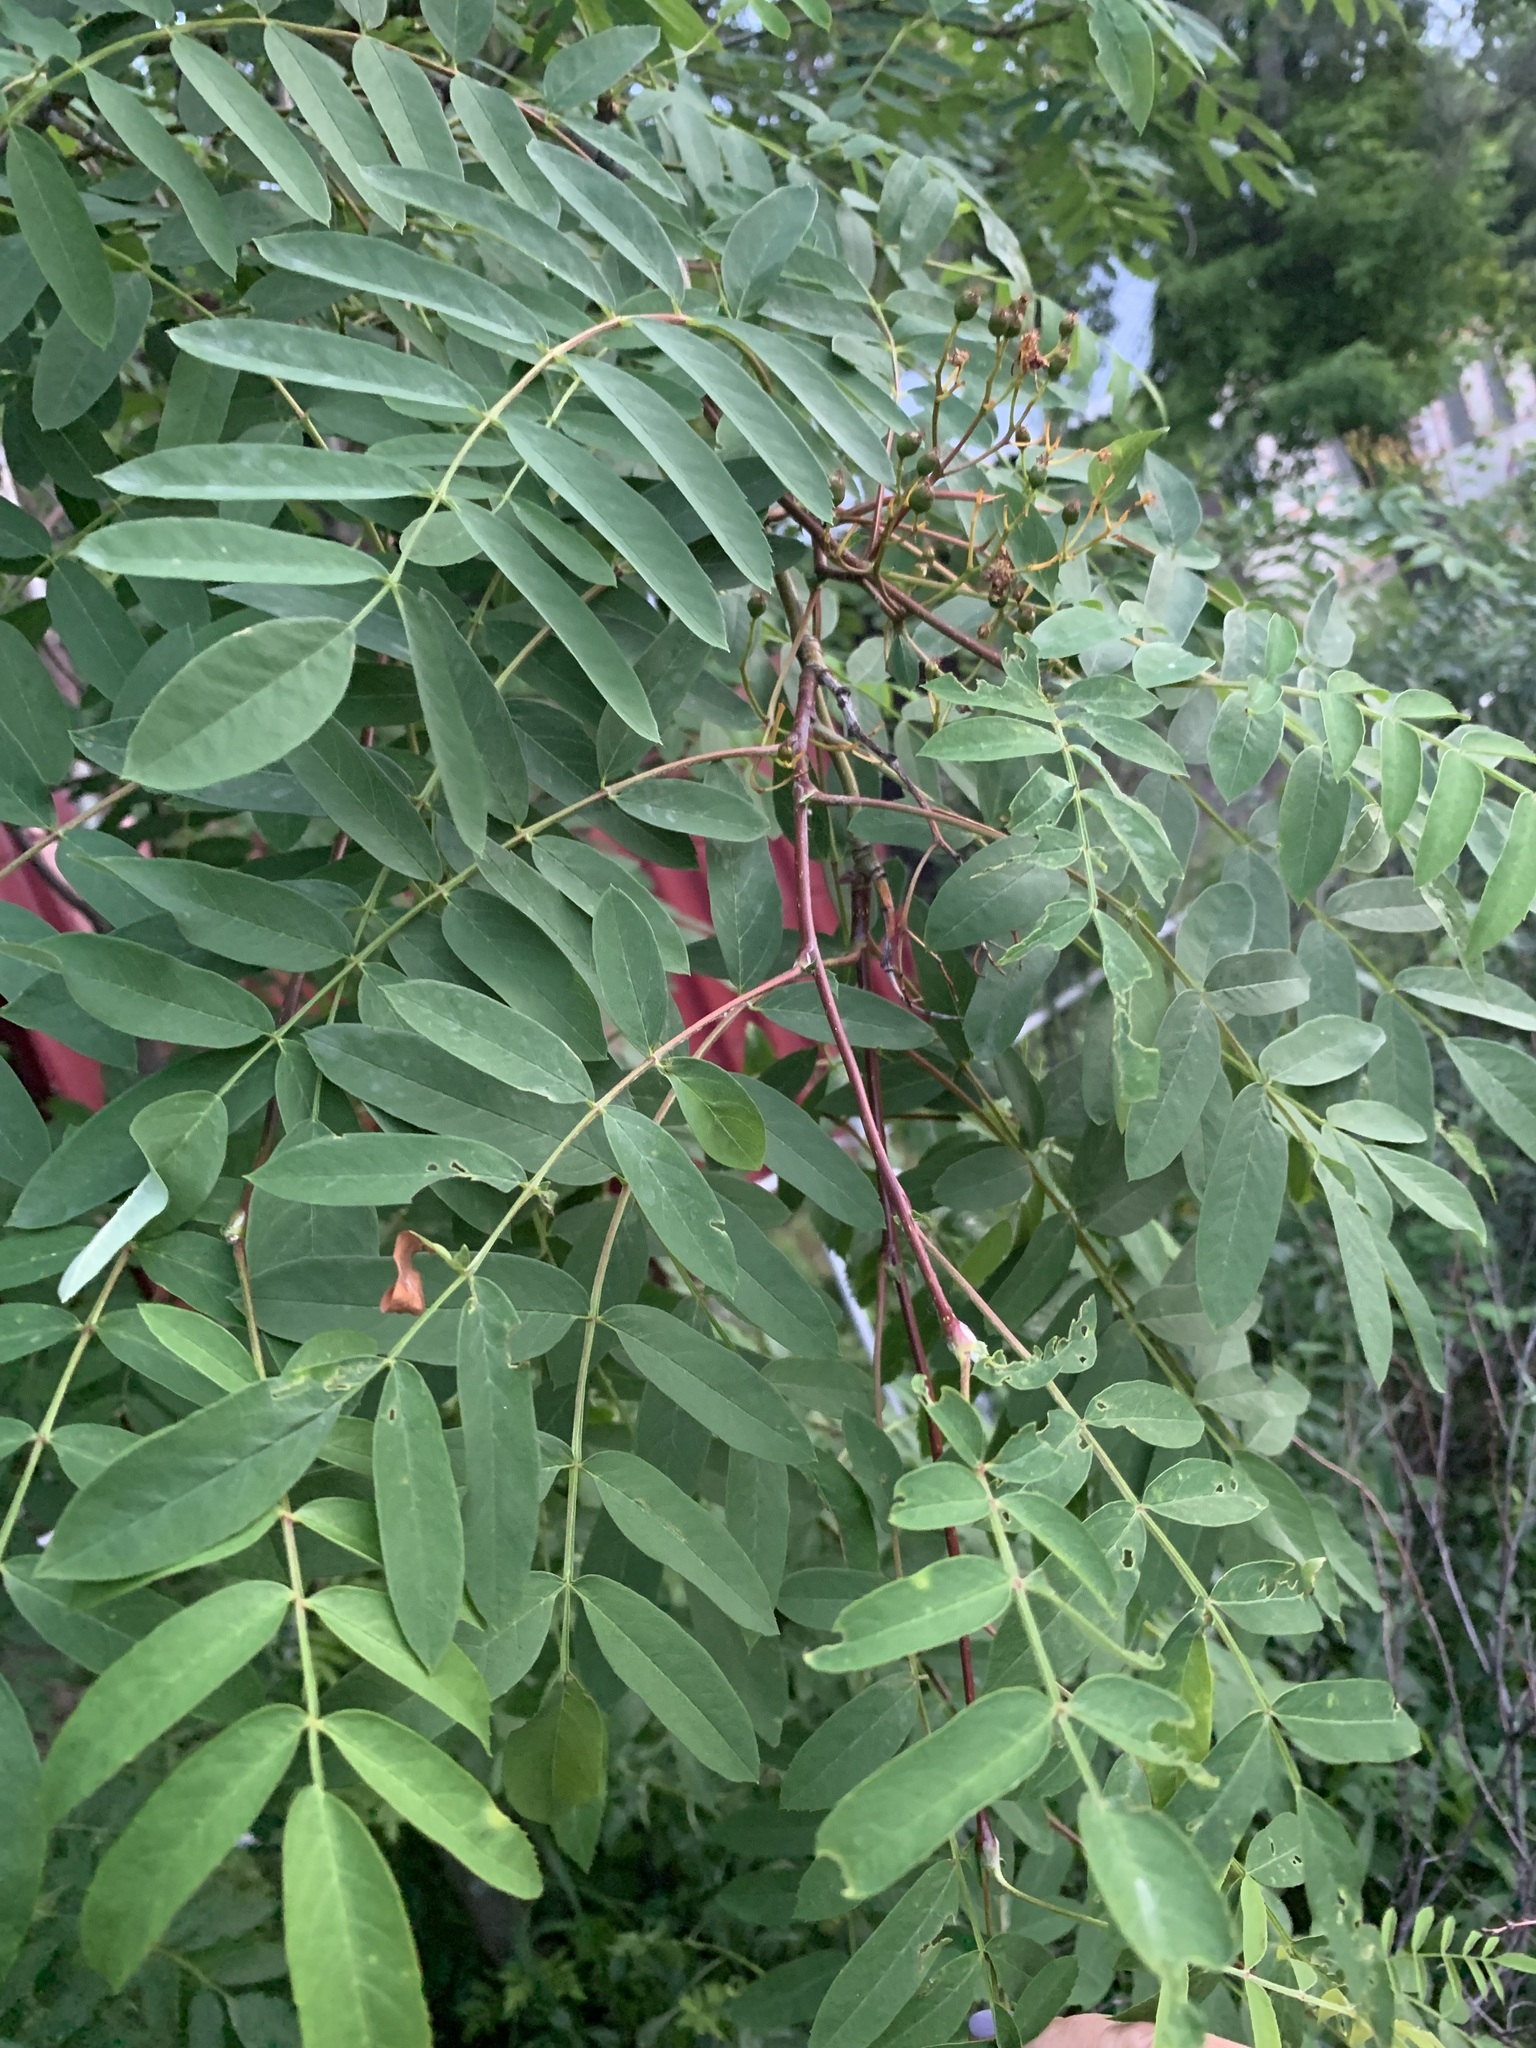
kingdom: Plantae
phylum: Tracheophyta
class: Magnoliopsida
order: Rosales
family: Rosaceae
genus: Sorbus
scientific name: Sorbus aucuparia
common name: Rowan
